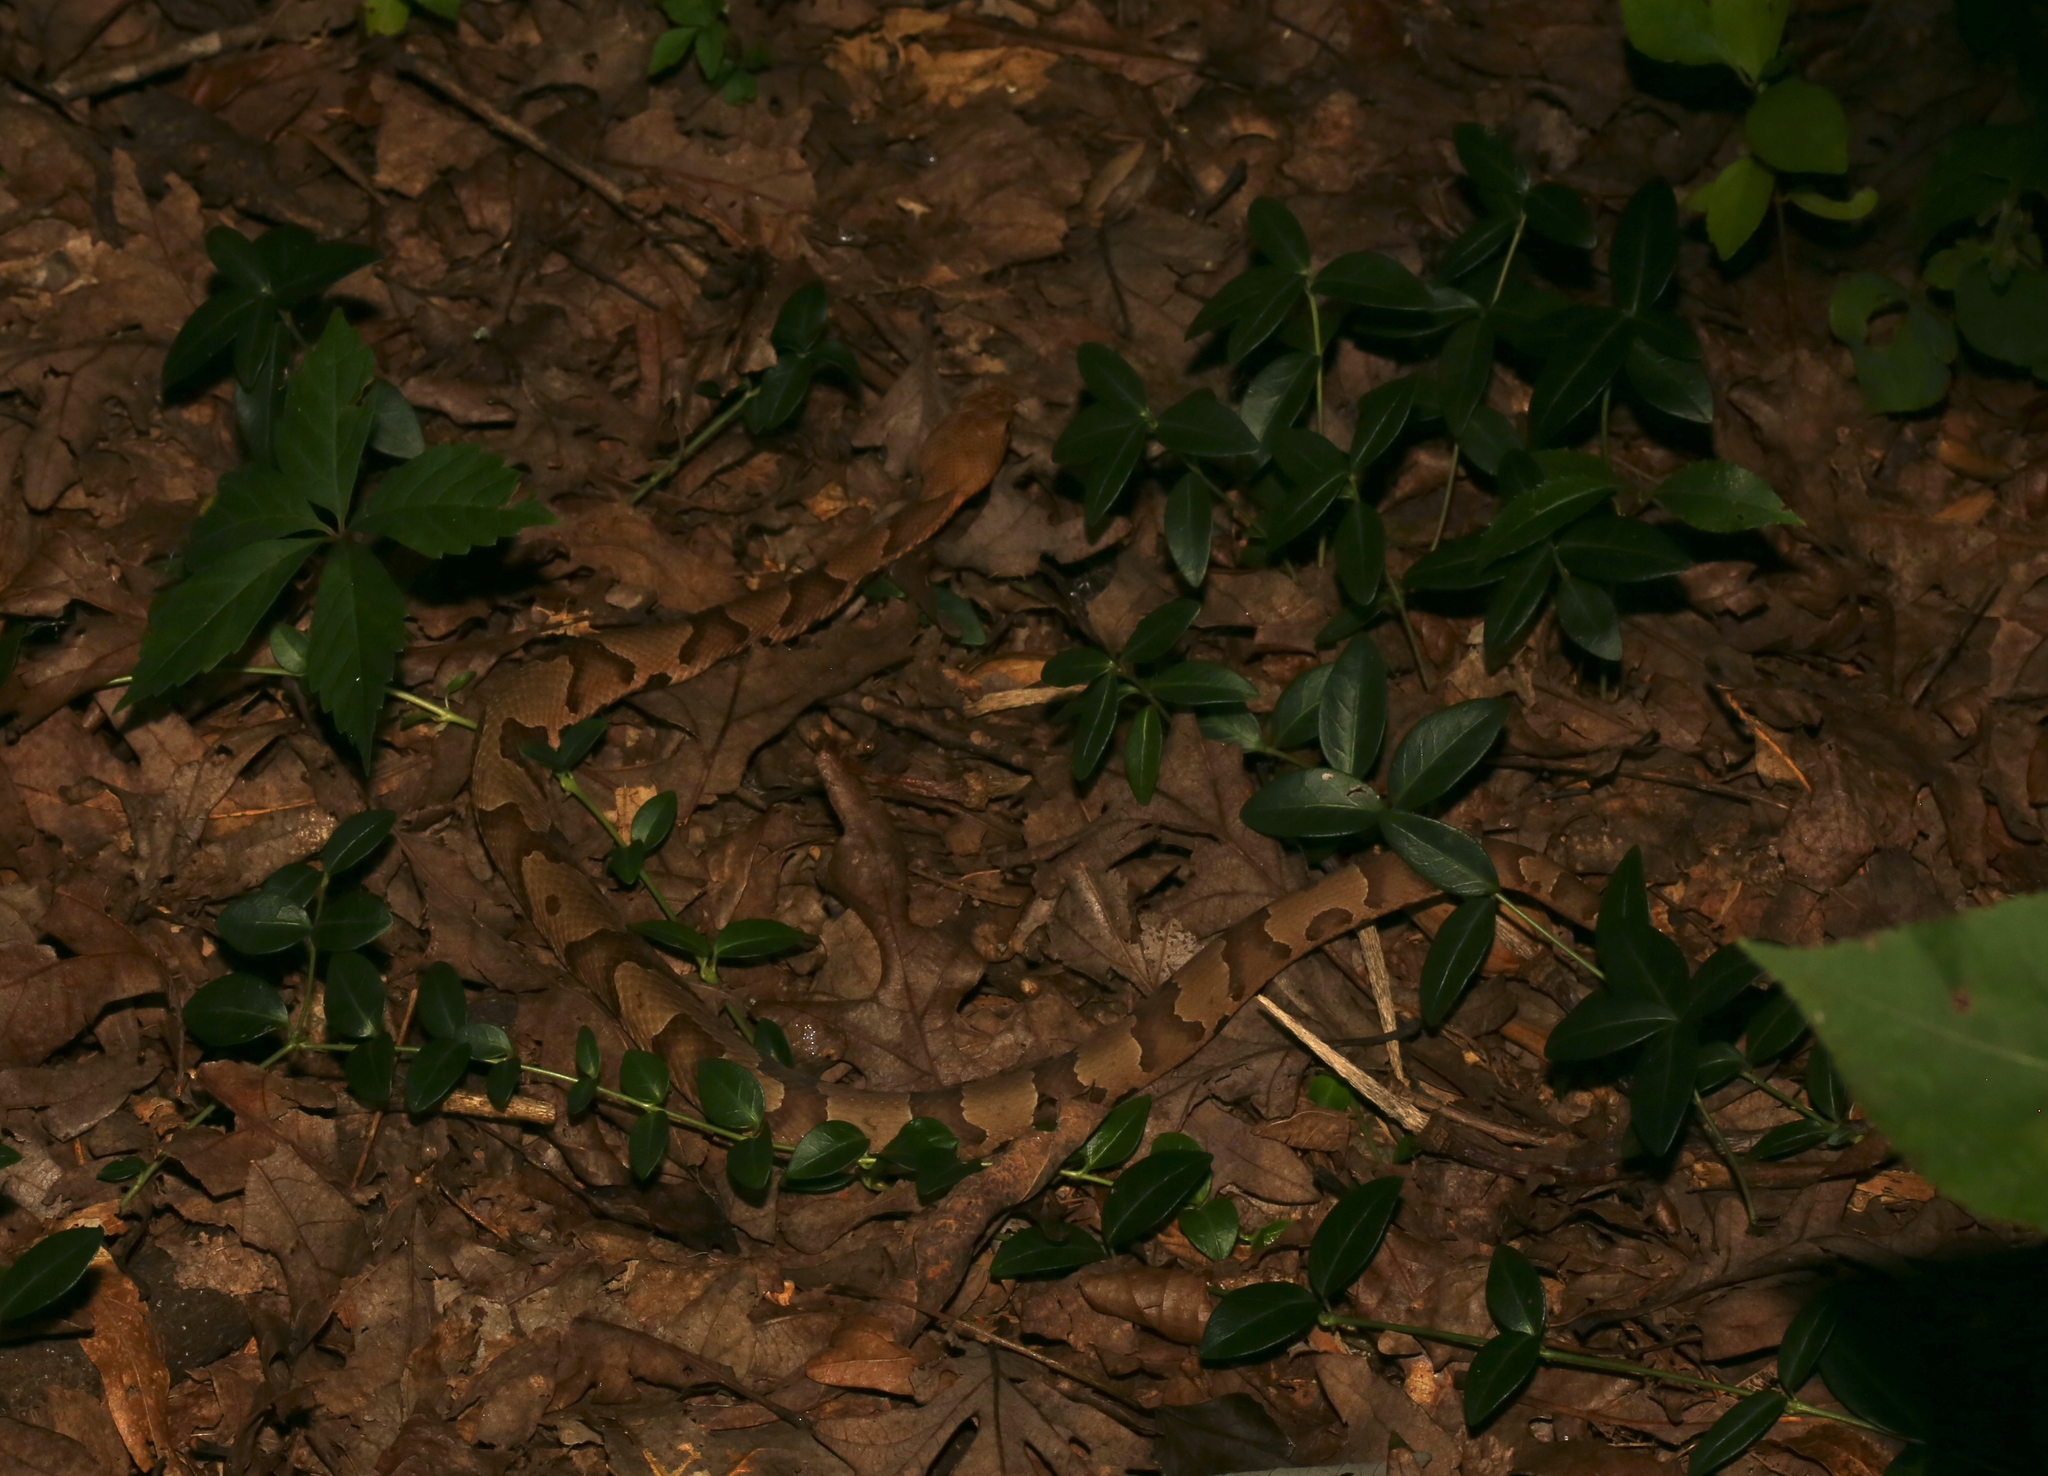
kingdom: Animalia
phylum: Chordata
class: Squamata
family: Viperidae
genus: Agkistrodon
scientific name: Agkistrodon contortrix
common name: Northern copperhead
